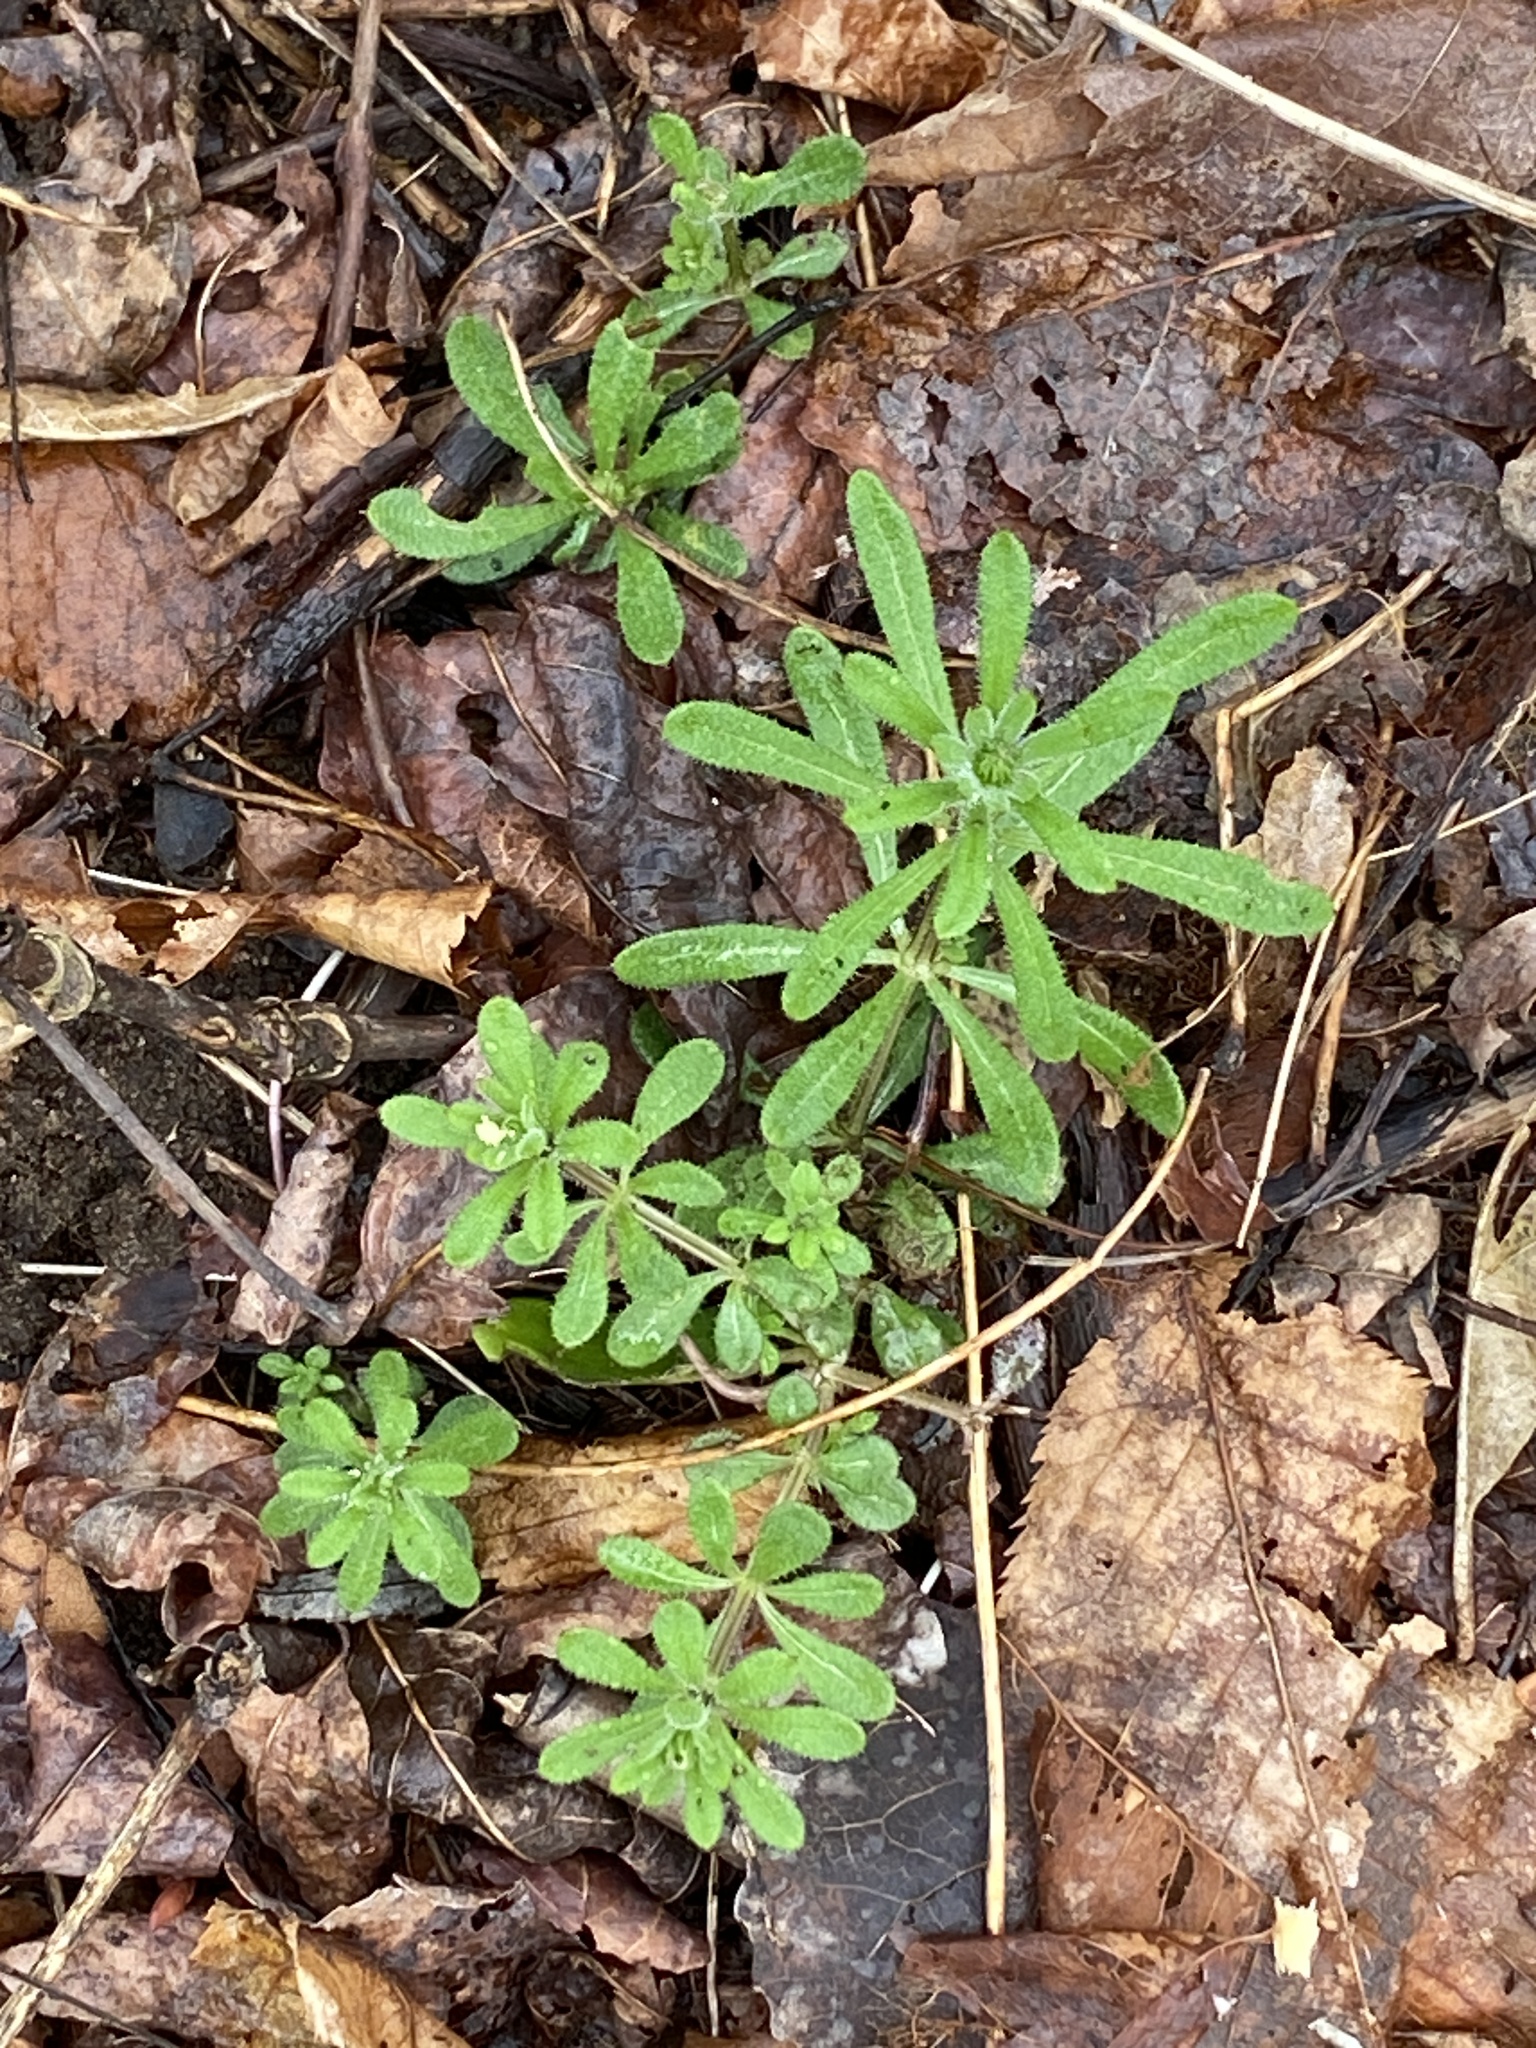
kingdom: Plantae
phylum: Tracheophyta
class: Magnoliopsida
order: Gentianales
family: Rubiaceae
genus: Galium
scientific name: Galium aparine
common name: Cleavers
